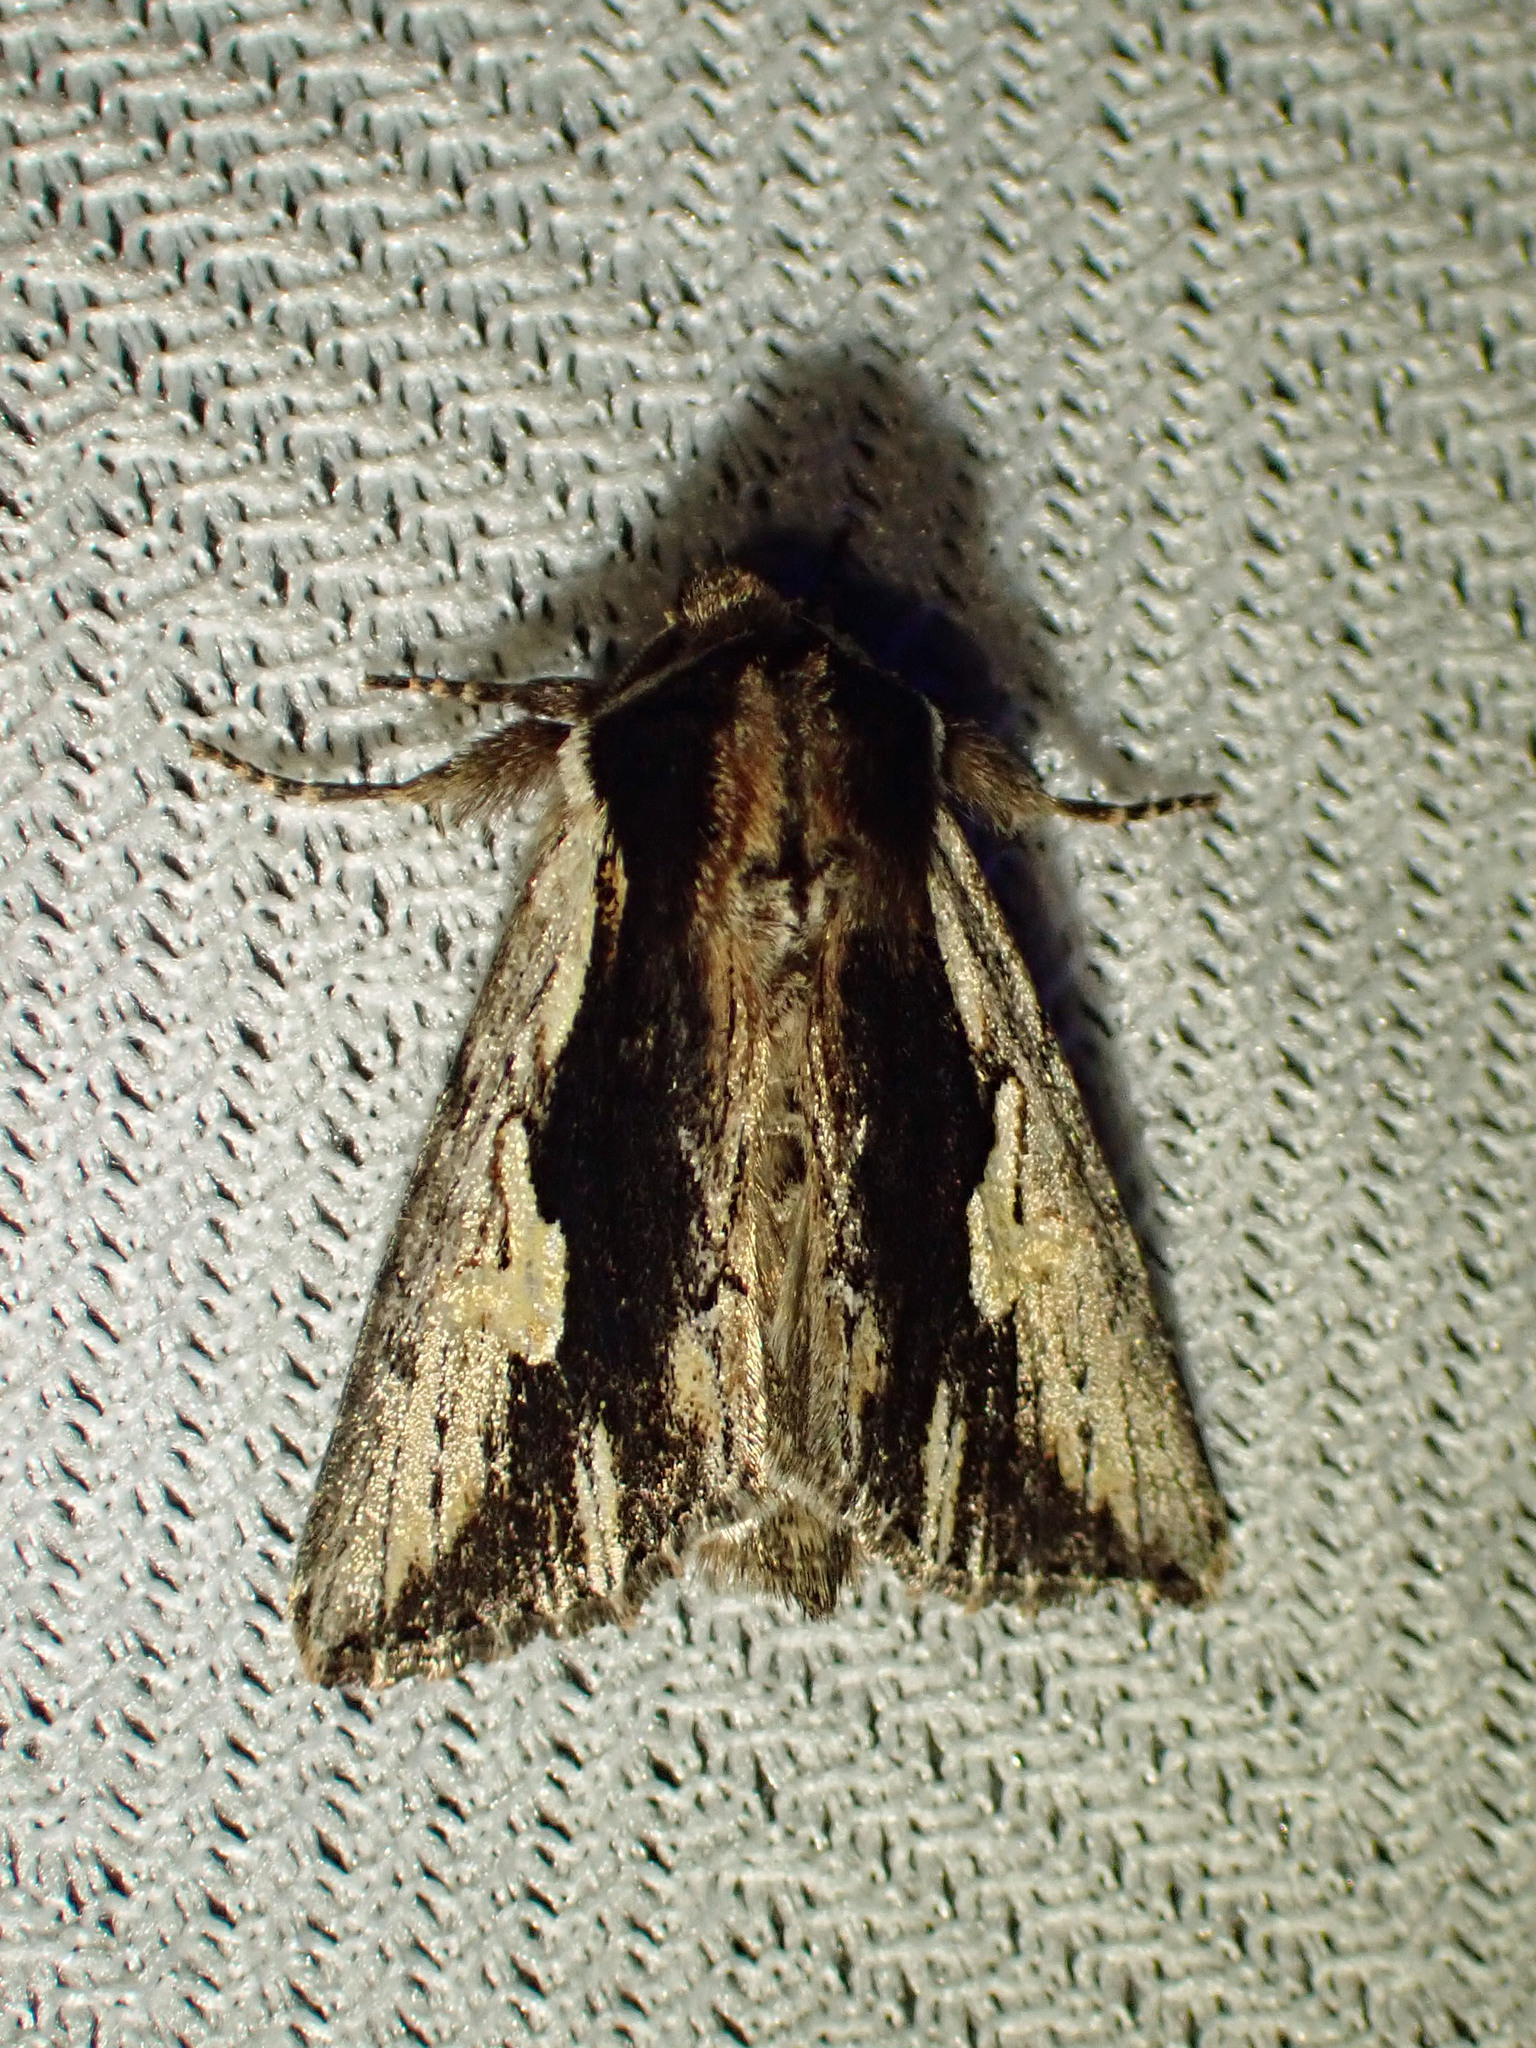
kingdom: Animalia
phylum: Arthropoda
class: Insecta
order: Lepidoptera
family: Noctuidae
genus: Achatia
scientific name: Achatia evicta
